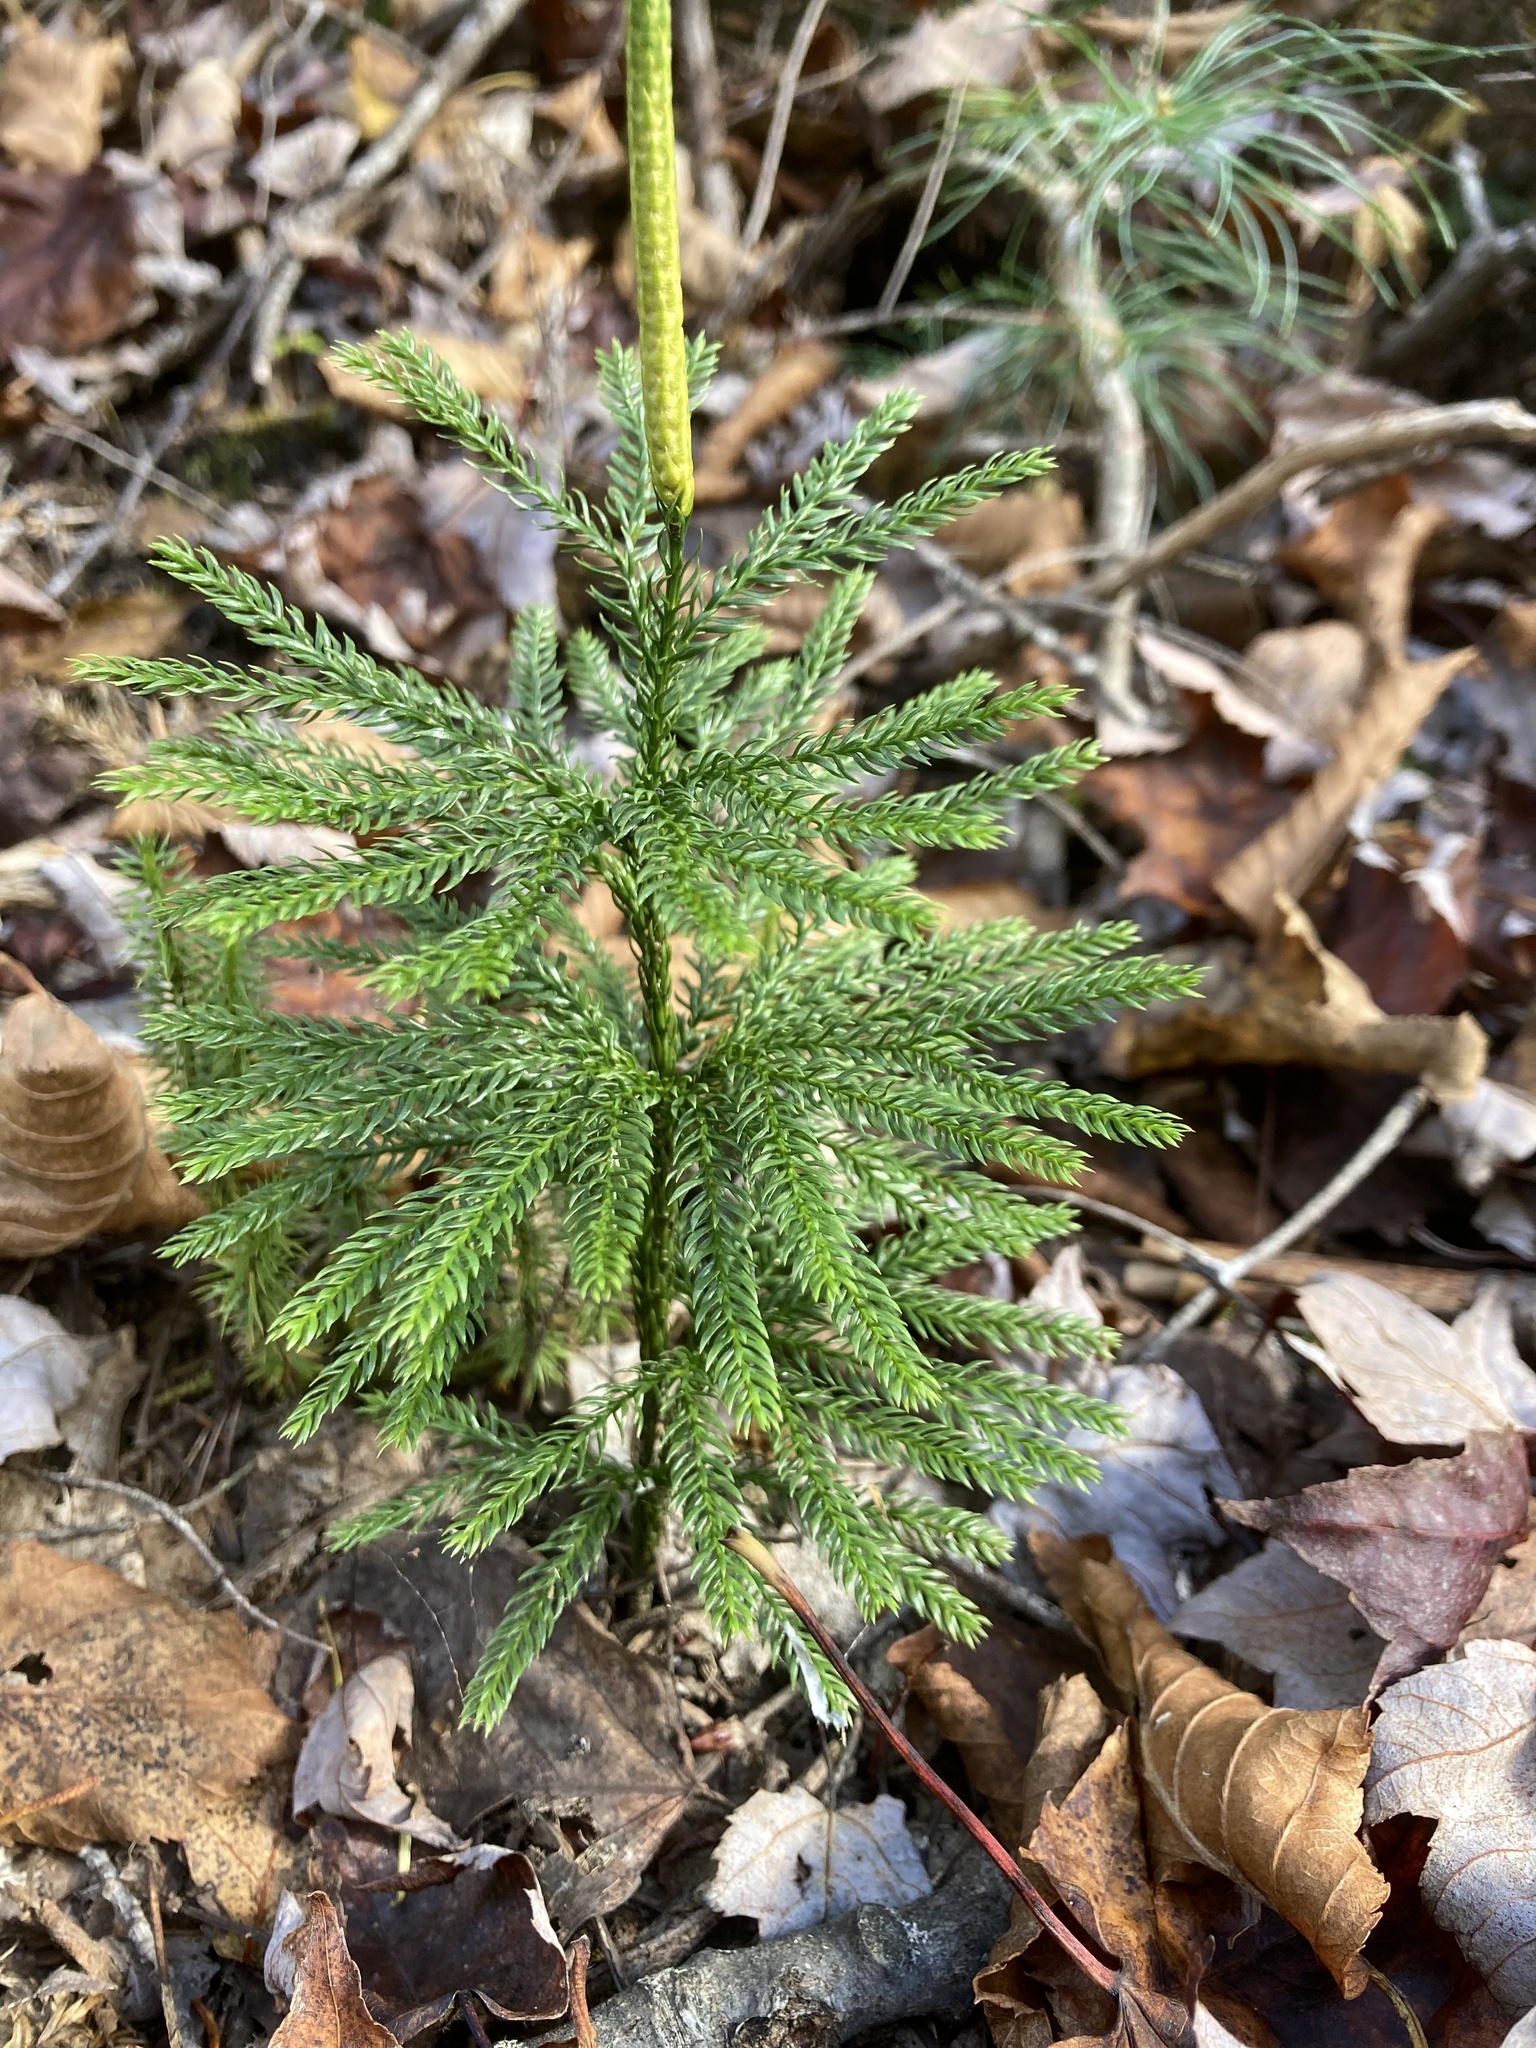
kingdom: Plantae
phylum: Tracheophyta
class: Lycopodiopsida
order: Lycopodiales
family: Lycopodiaceae
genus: Dendrolycopodium
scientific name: Dendrolycopodium obscurum
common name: Common ground-pine
